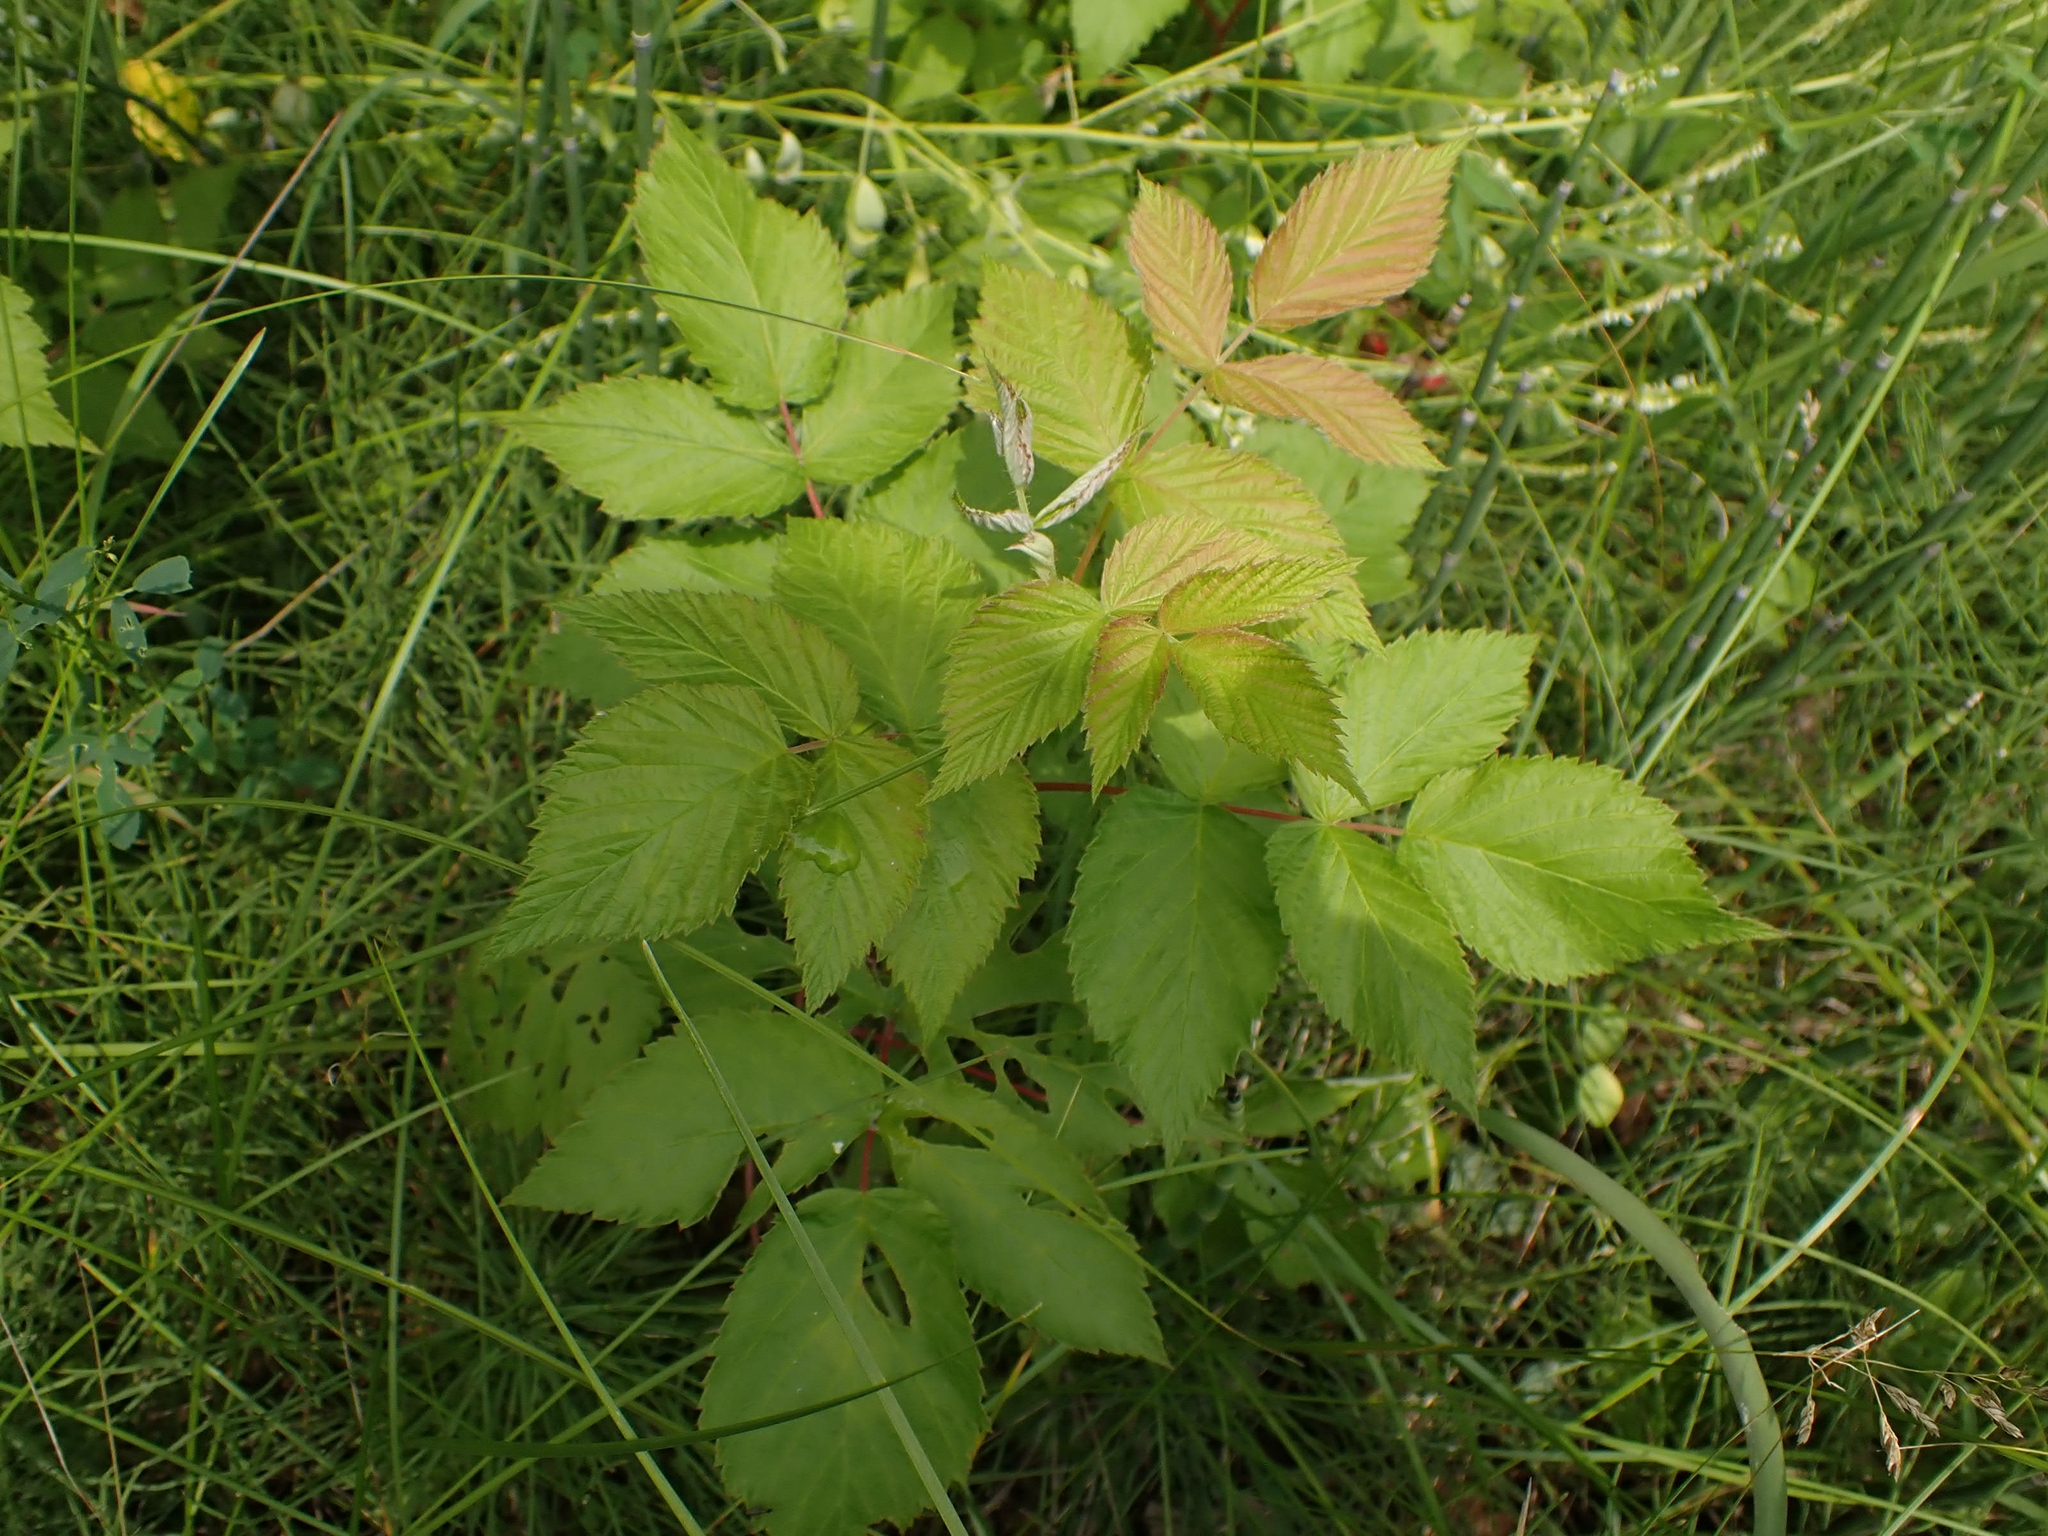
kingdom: Plantae
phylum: Tracheophyta
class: Magnoliopsida
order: Rosales
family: Rosaceae
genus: Rubus
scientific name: Rubus idaeus
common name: Raspberry
